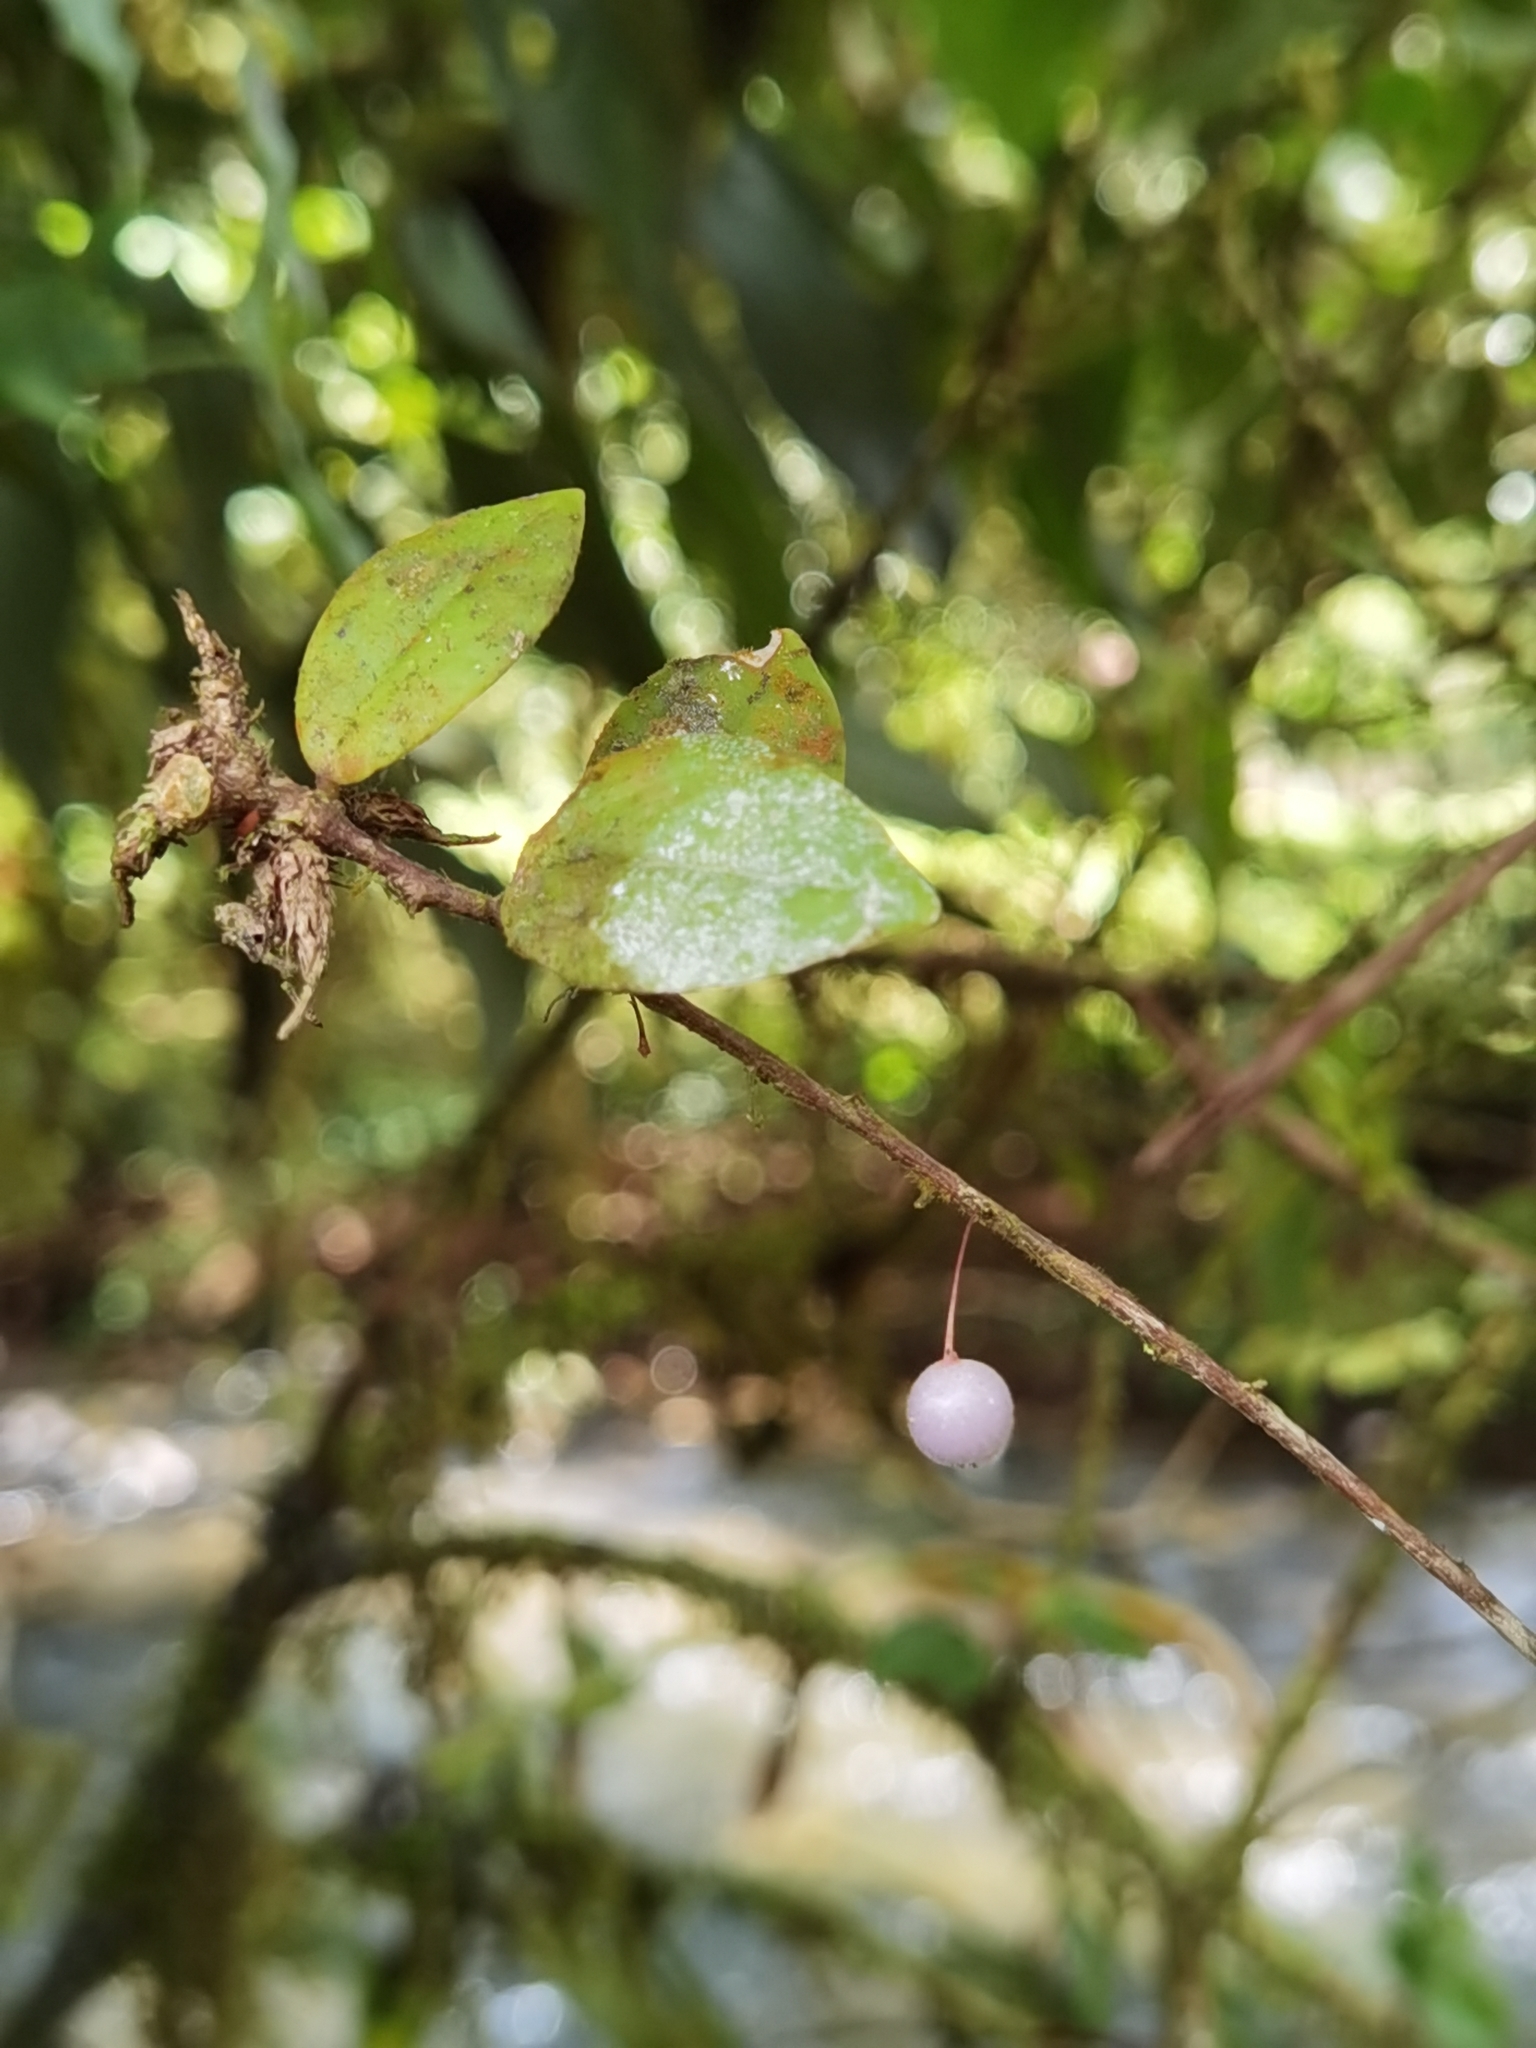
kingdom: Plantae
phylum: Tracheophyta
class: Magnoliopsida
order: Ericales
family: Ericaceae
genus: Sphyrospermum
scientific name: Sphyrospermum buxifolium
